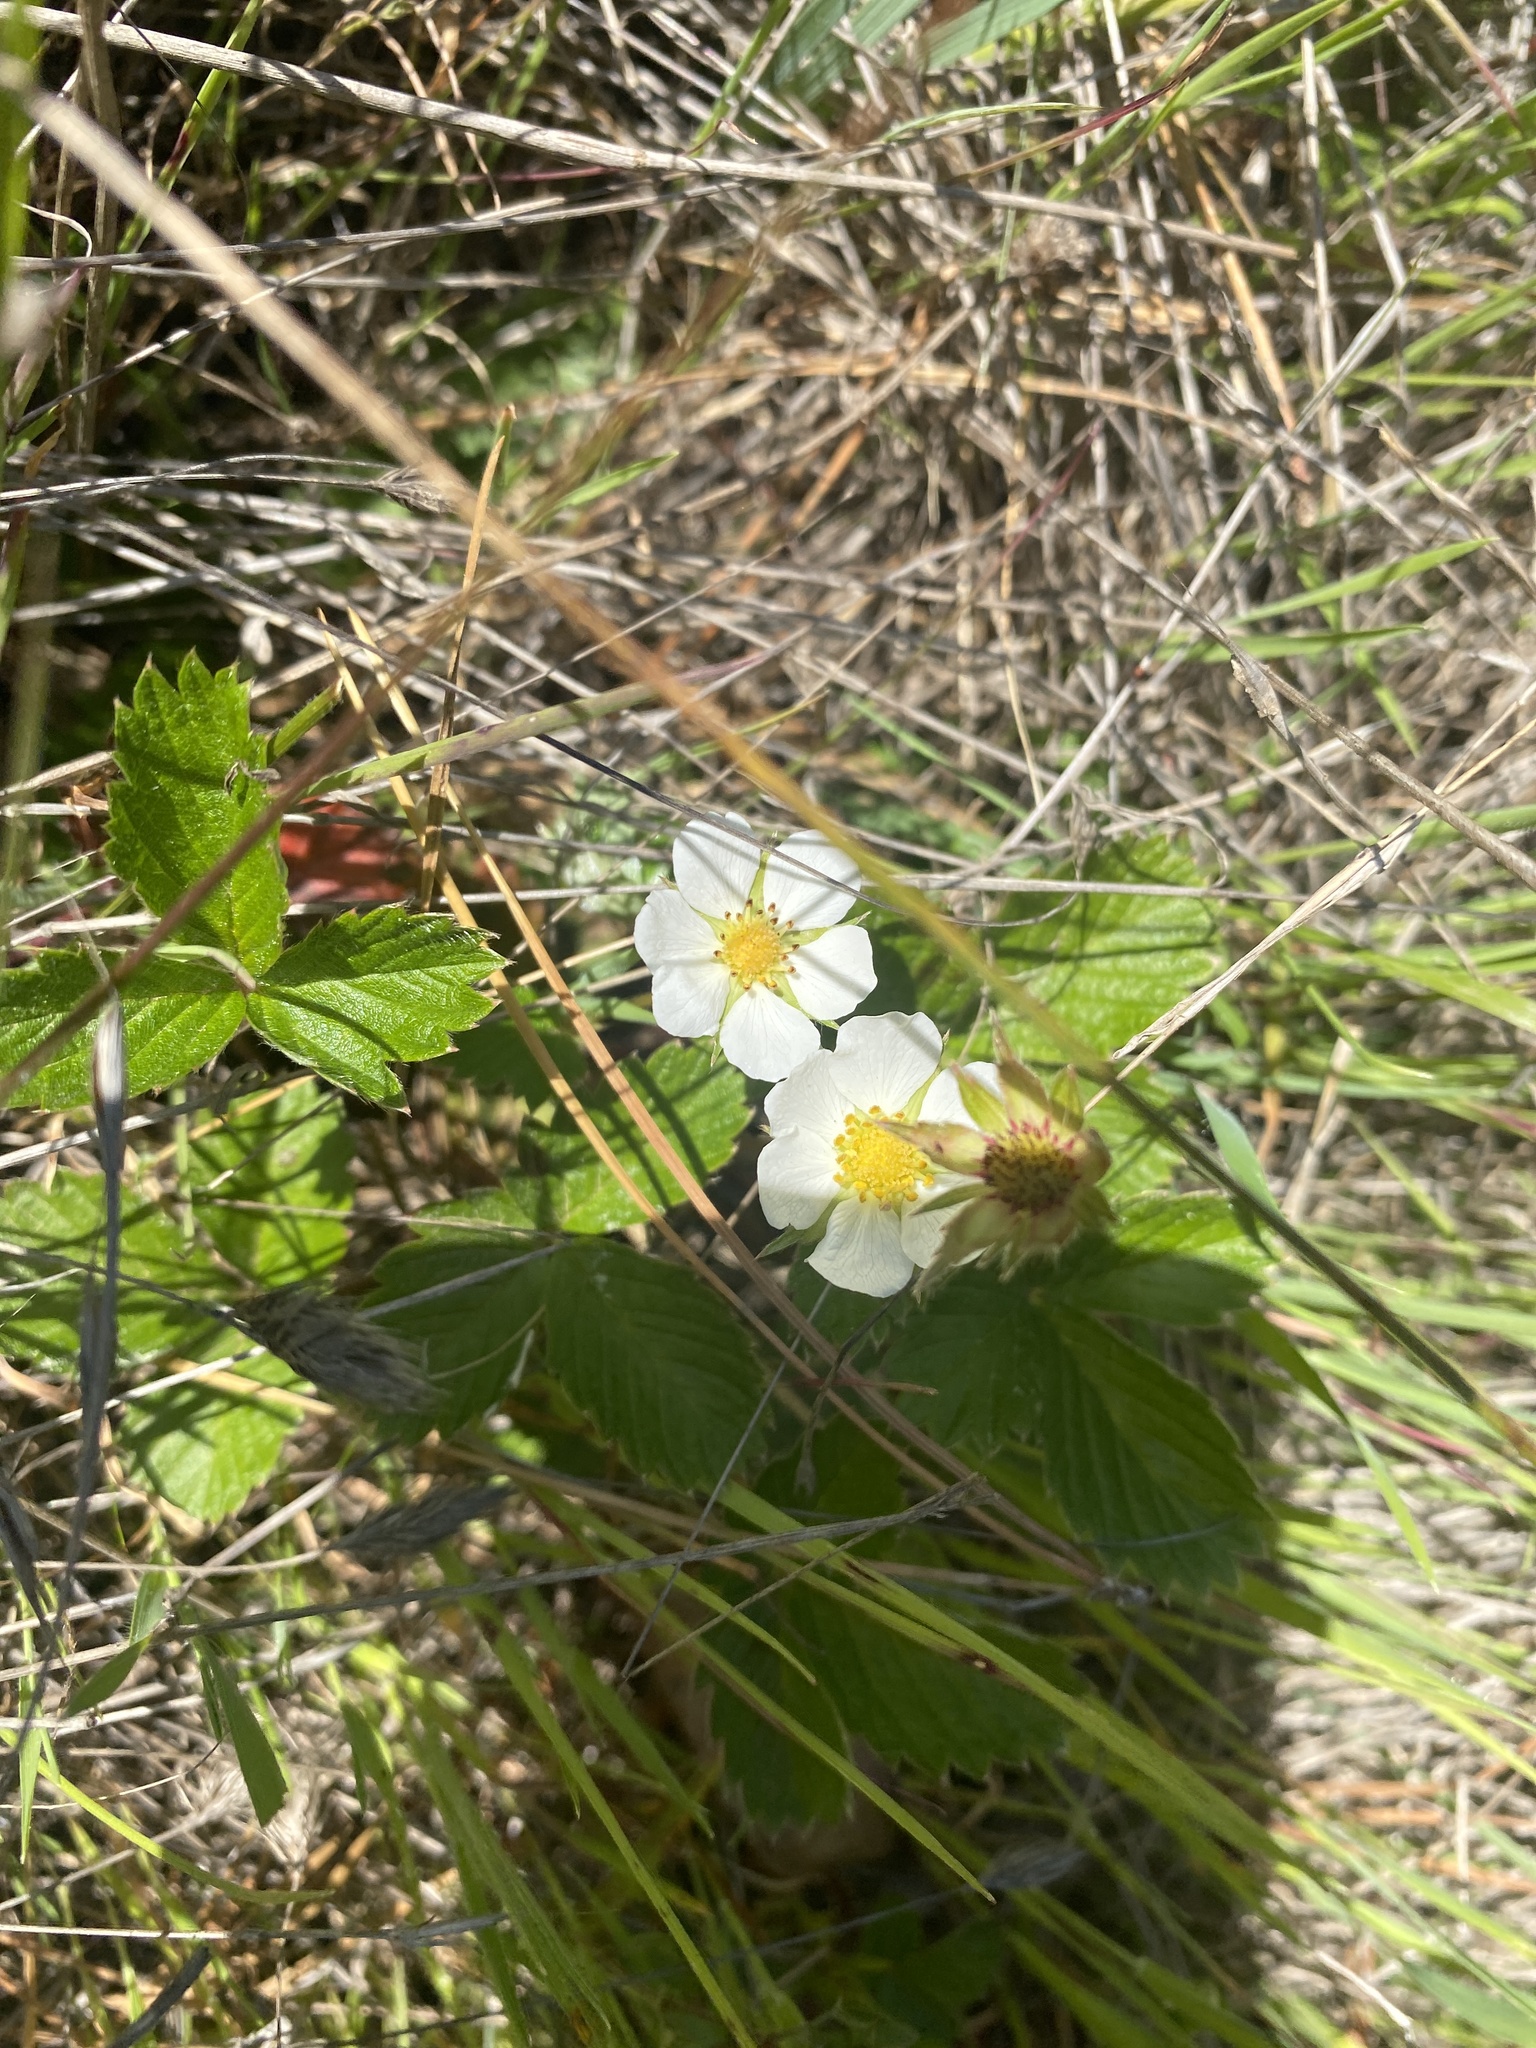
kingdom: Plantae
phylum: Tracheophyta
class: Magnoliopsida
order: Rosales
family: Rosaceae
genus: Fragaria
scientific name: Fragaria vesca
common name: Wild strawberry
